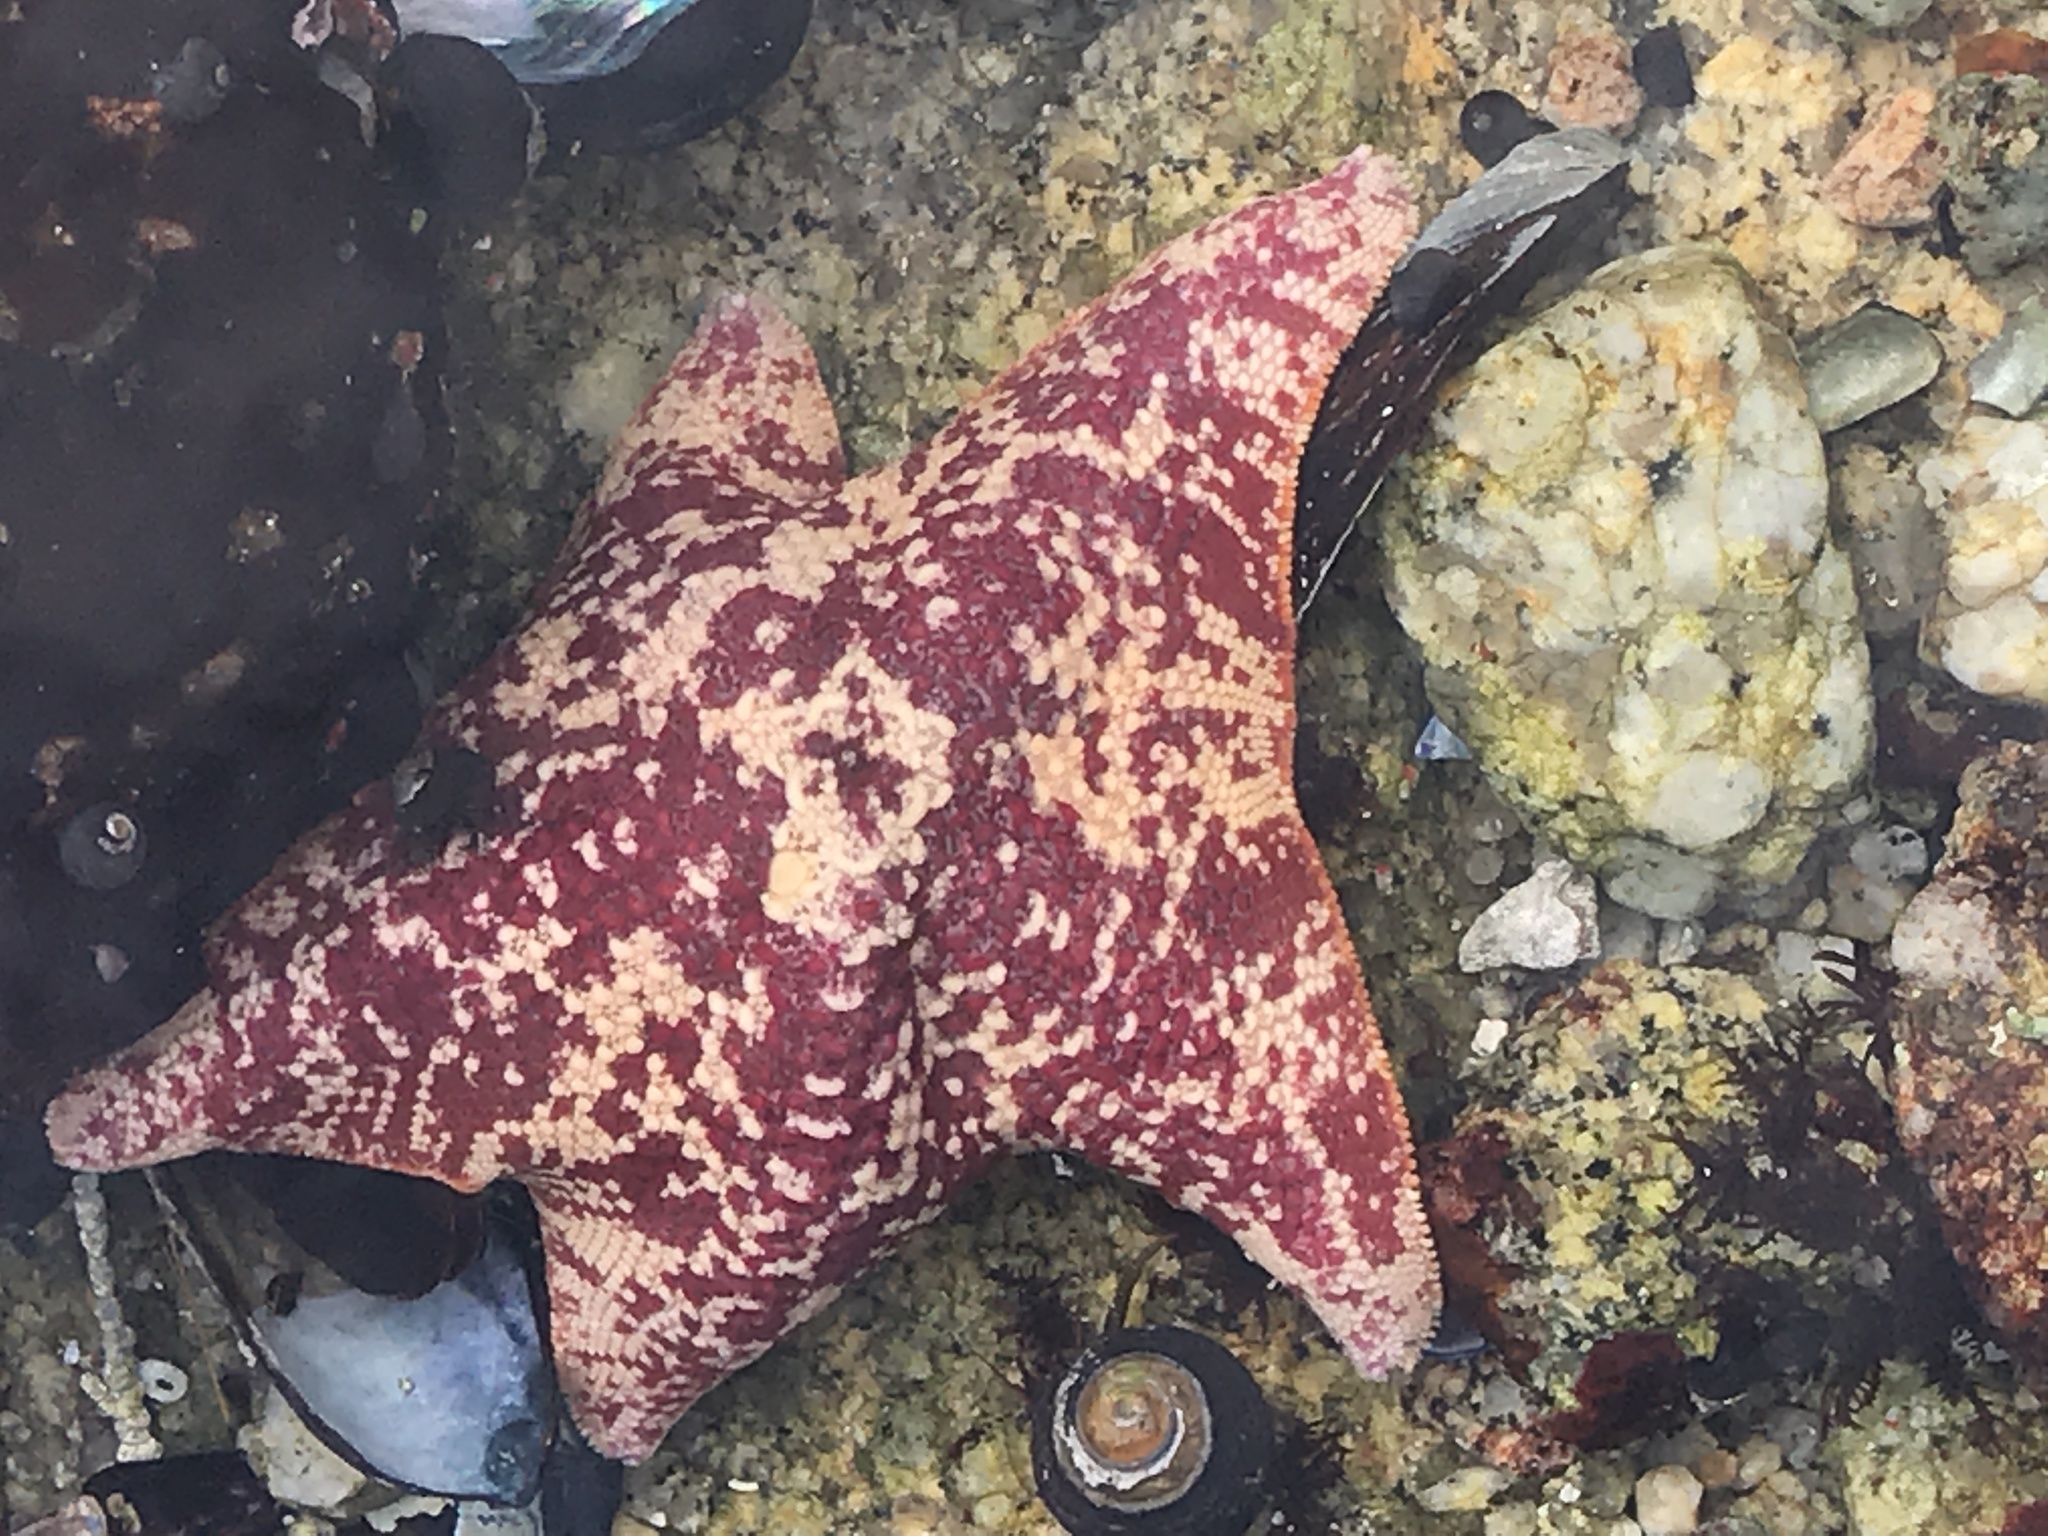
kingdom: Animalia
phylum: Echinodermata
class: Asteroidea
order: Valvatida
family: Asterinidae
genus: Patiria
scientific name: Patiria miniata
